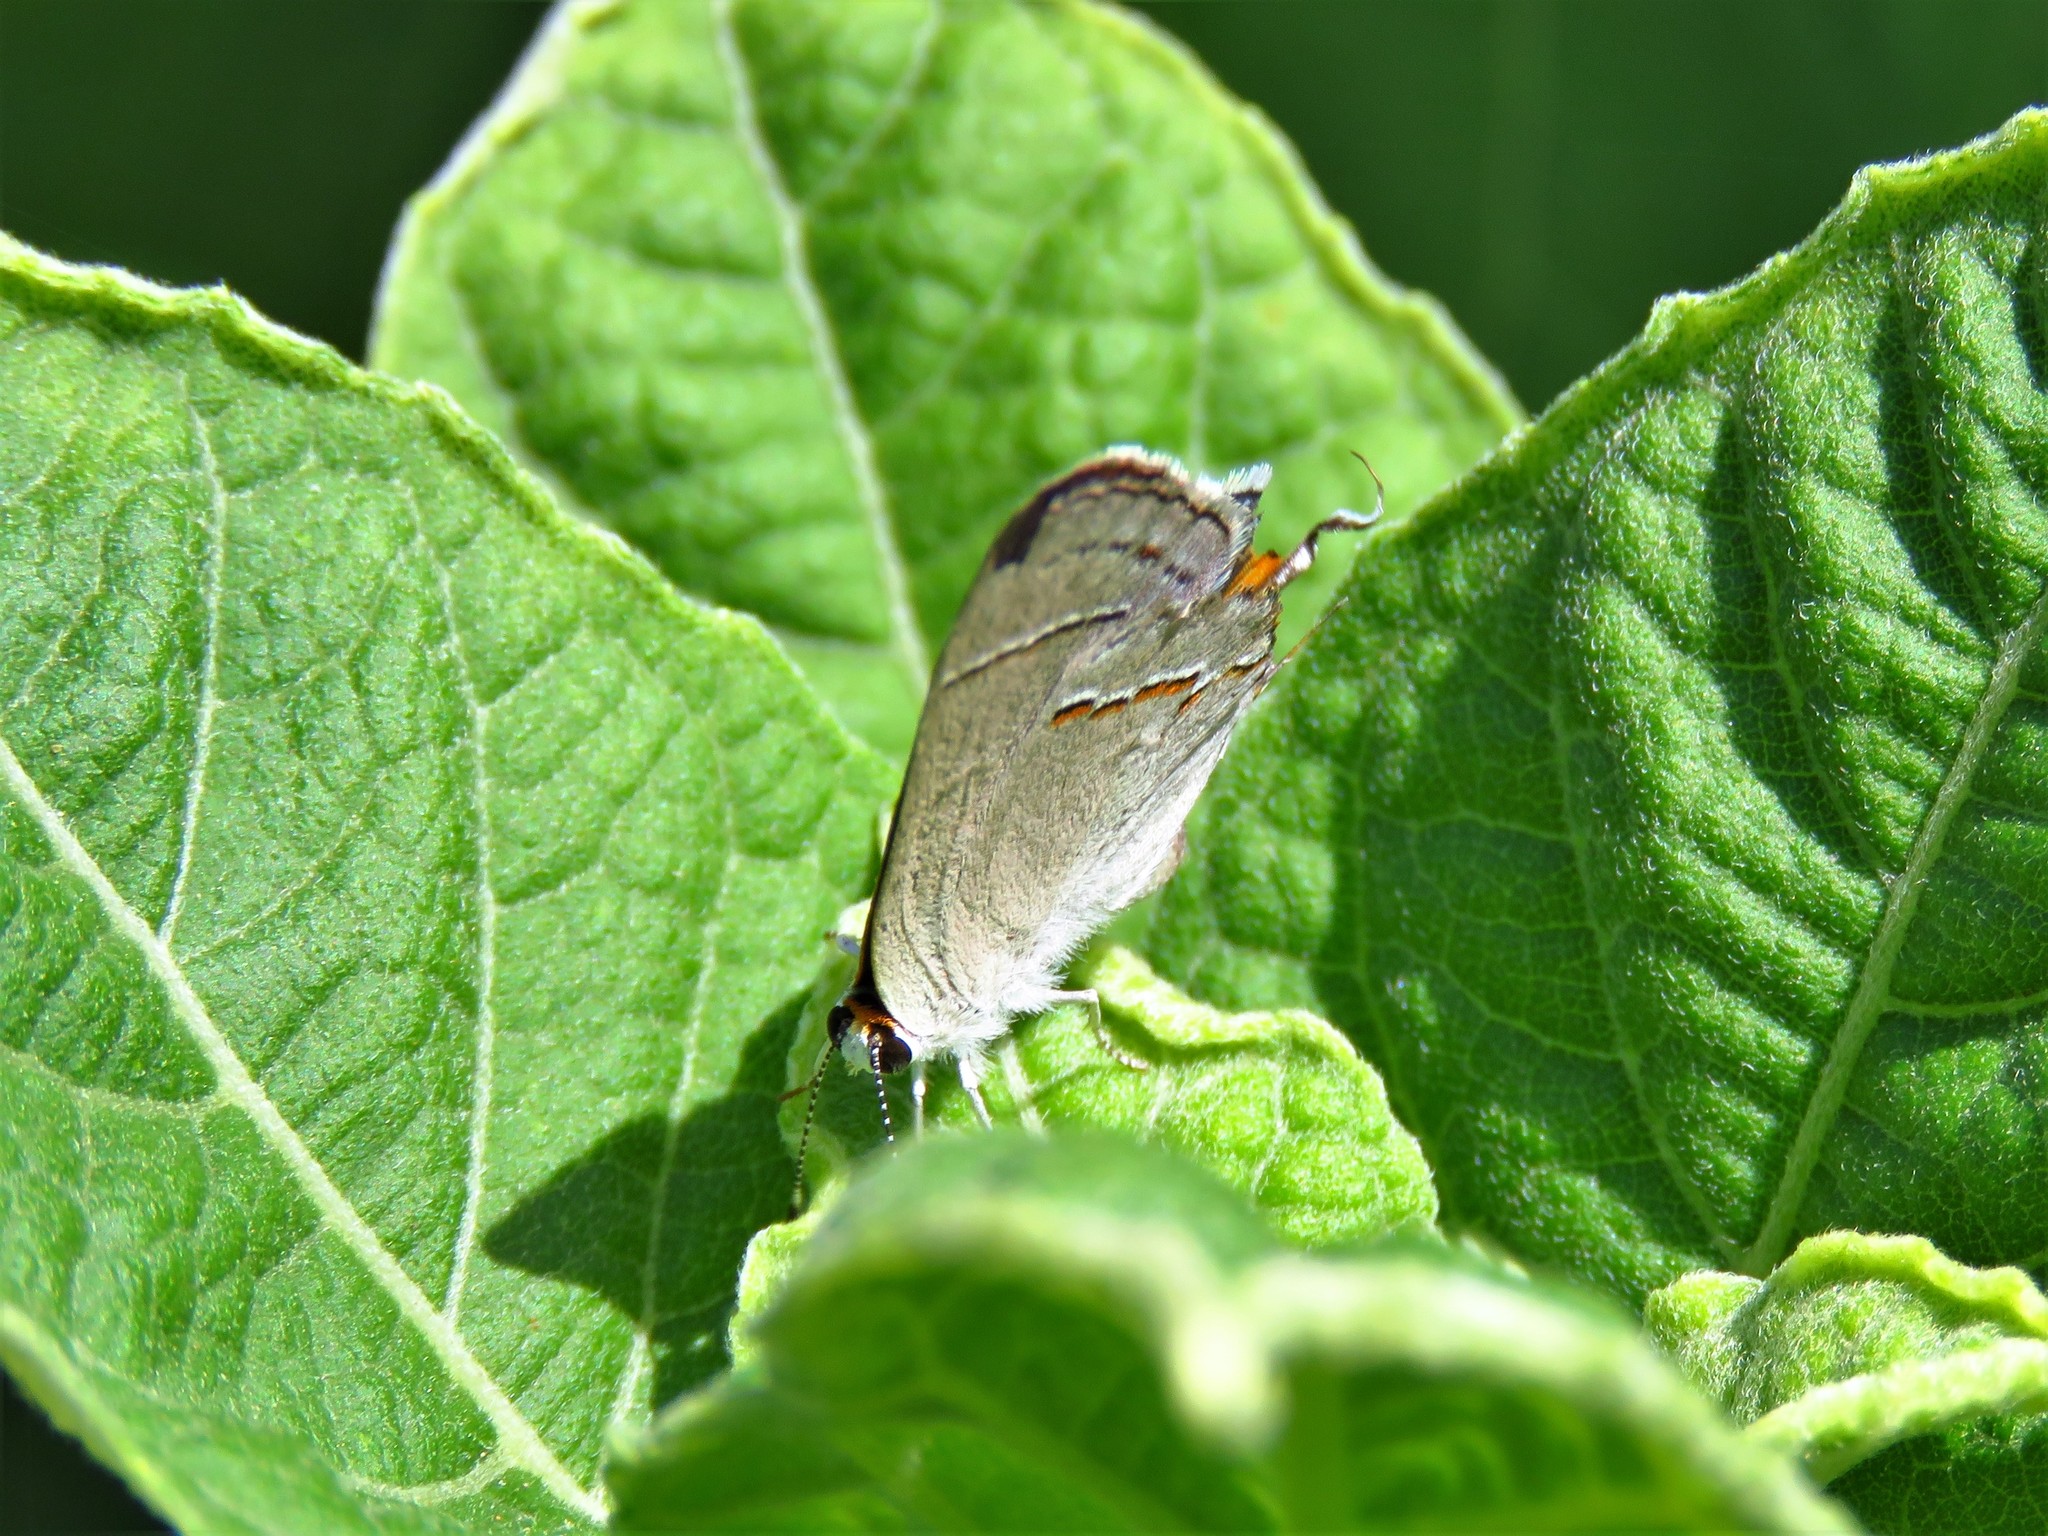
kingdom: Animalia
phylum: Arthropoda
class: Insecta
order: Lepidoptera
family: Lycaenidae
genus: Strymon
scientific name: Strymon melinus
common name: Gray hairstreak
